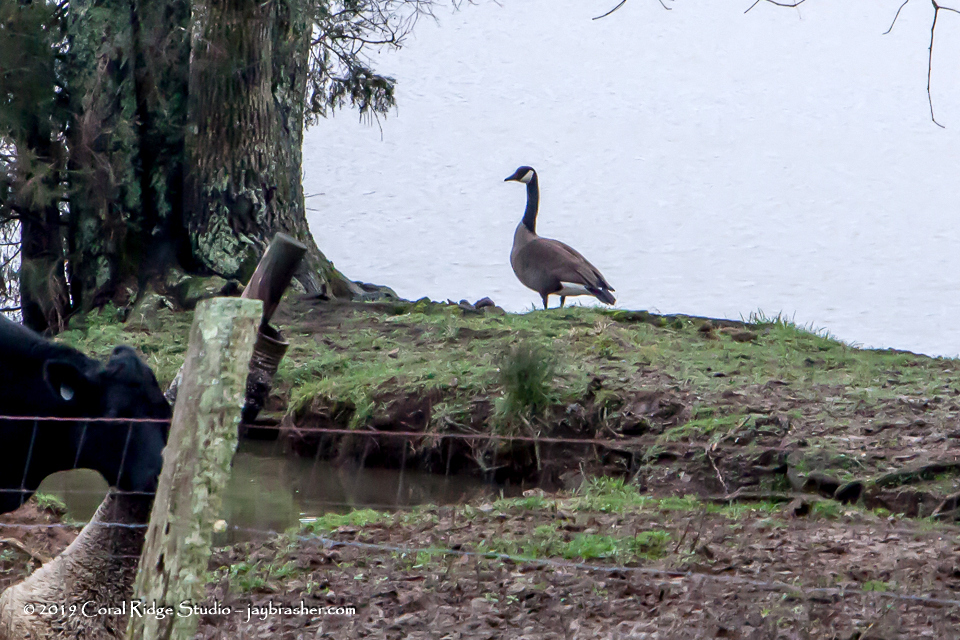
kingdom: Animalia
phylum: Chordata
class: Aves
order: Anseriformes
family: Anatidae
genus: Branta
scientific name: Branta canadensis
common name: Canada goose
